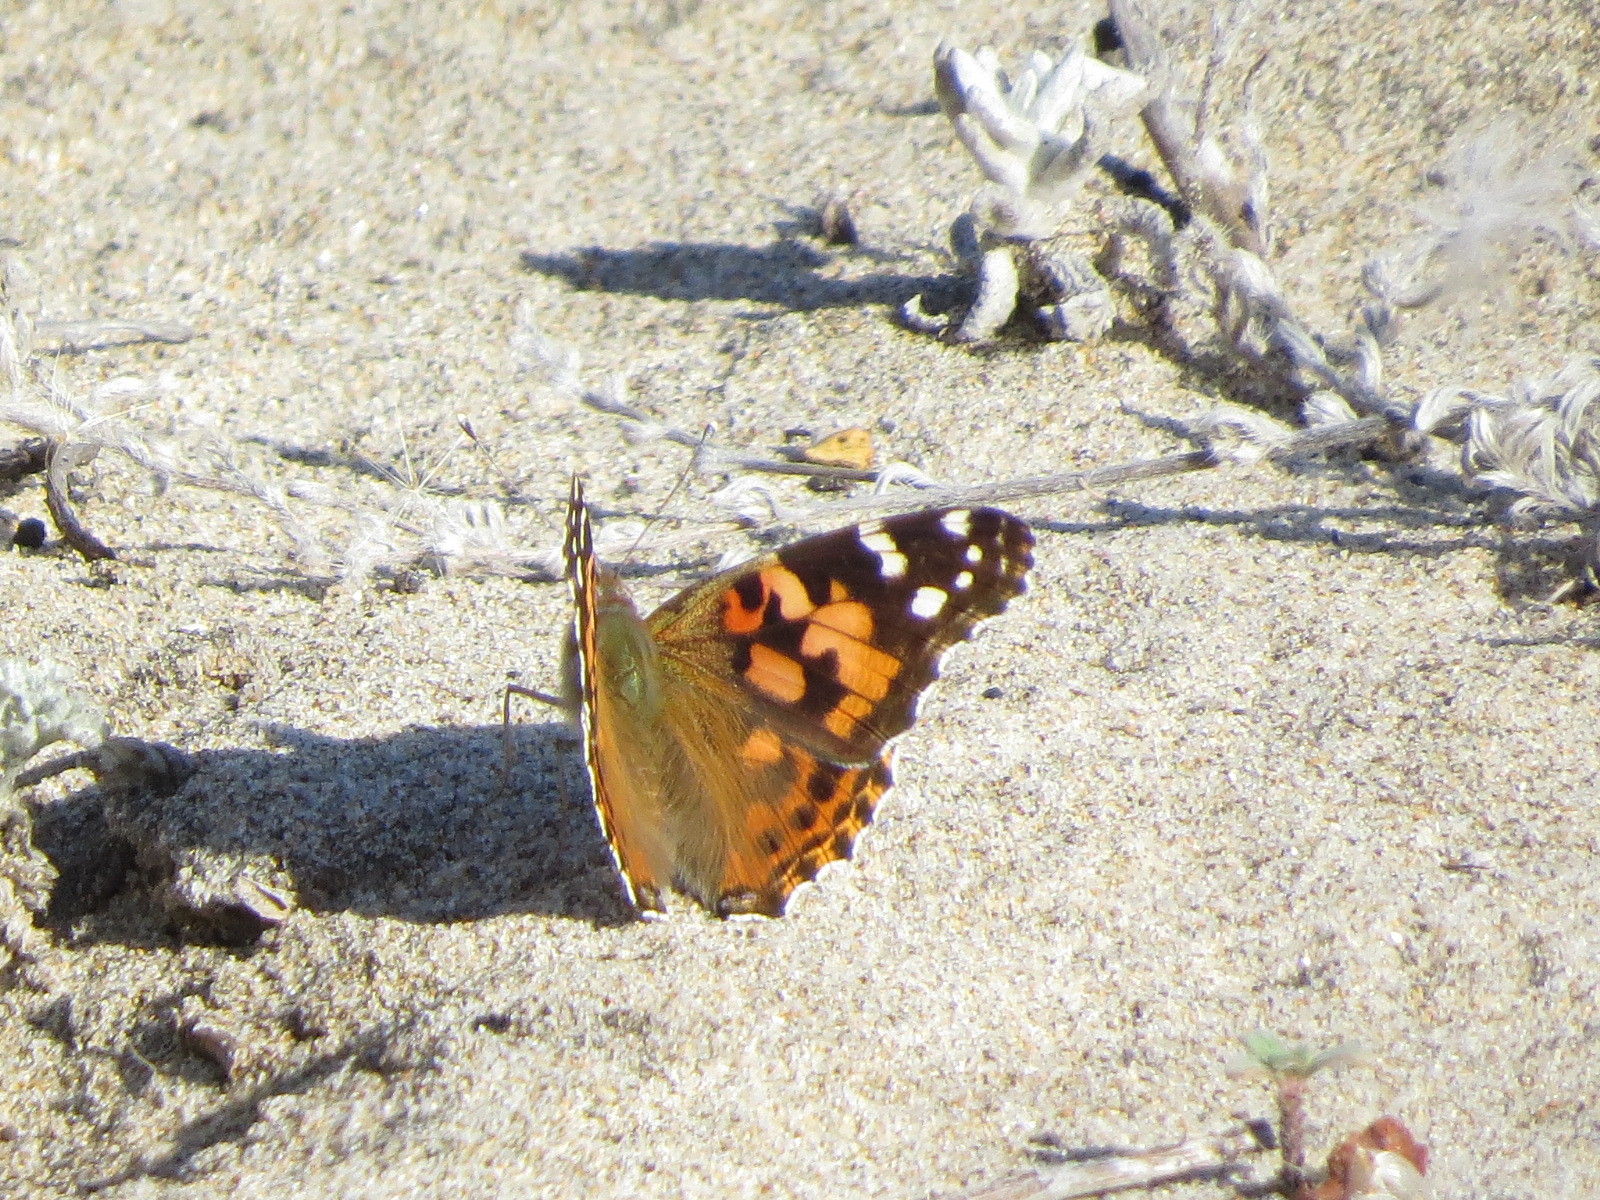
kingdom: Animalia
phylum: Arthropoda
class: Insecta
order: Lepidoptera
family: Nymphalidae
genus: Vanessa
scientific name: Vanessa cardui
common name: Painted lady
